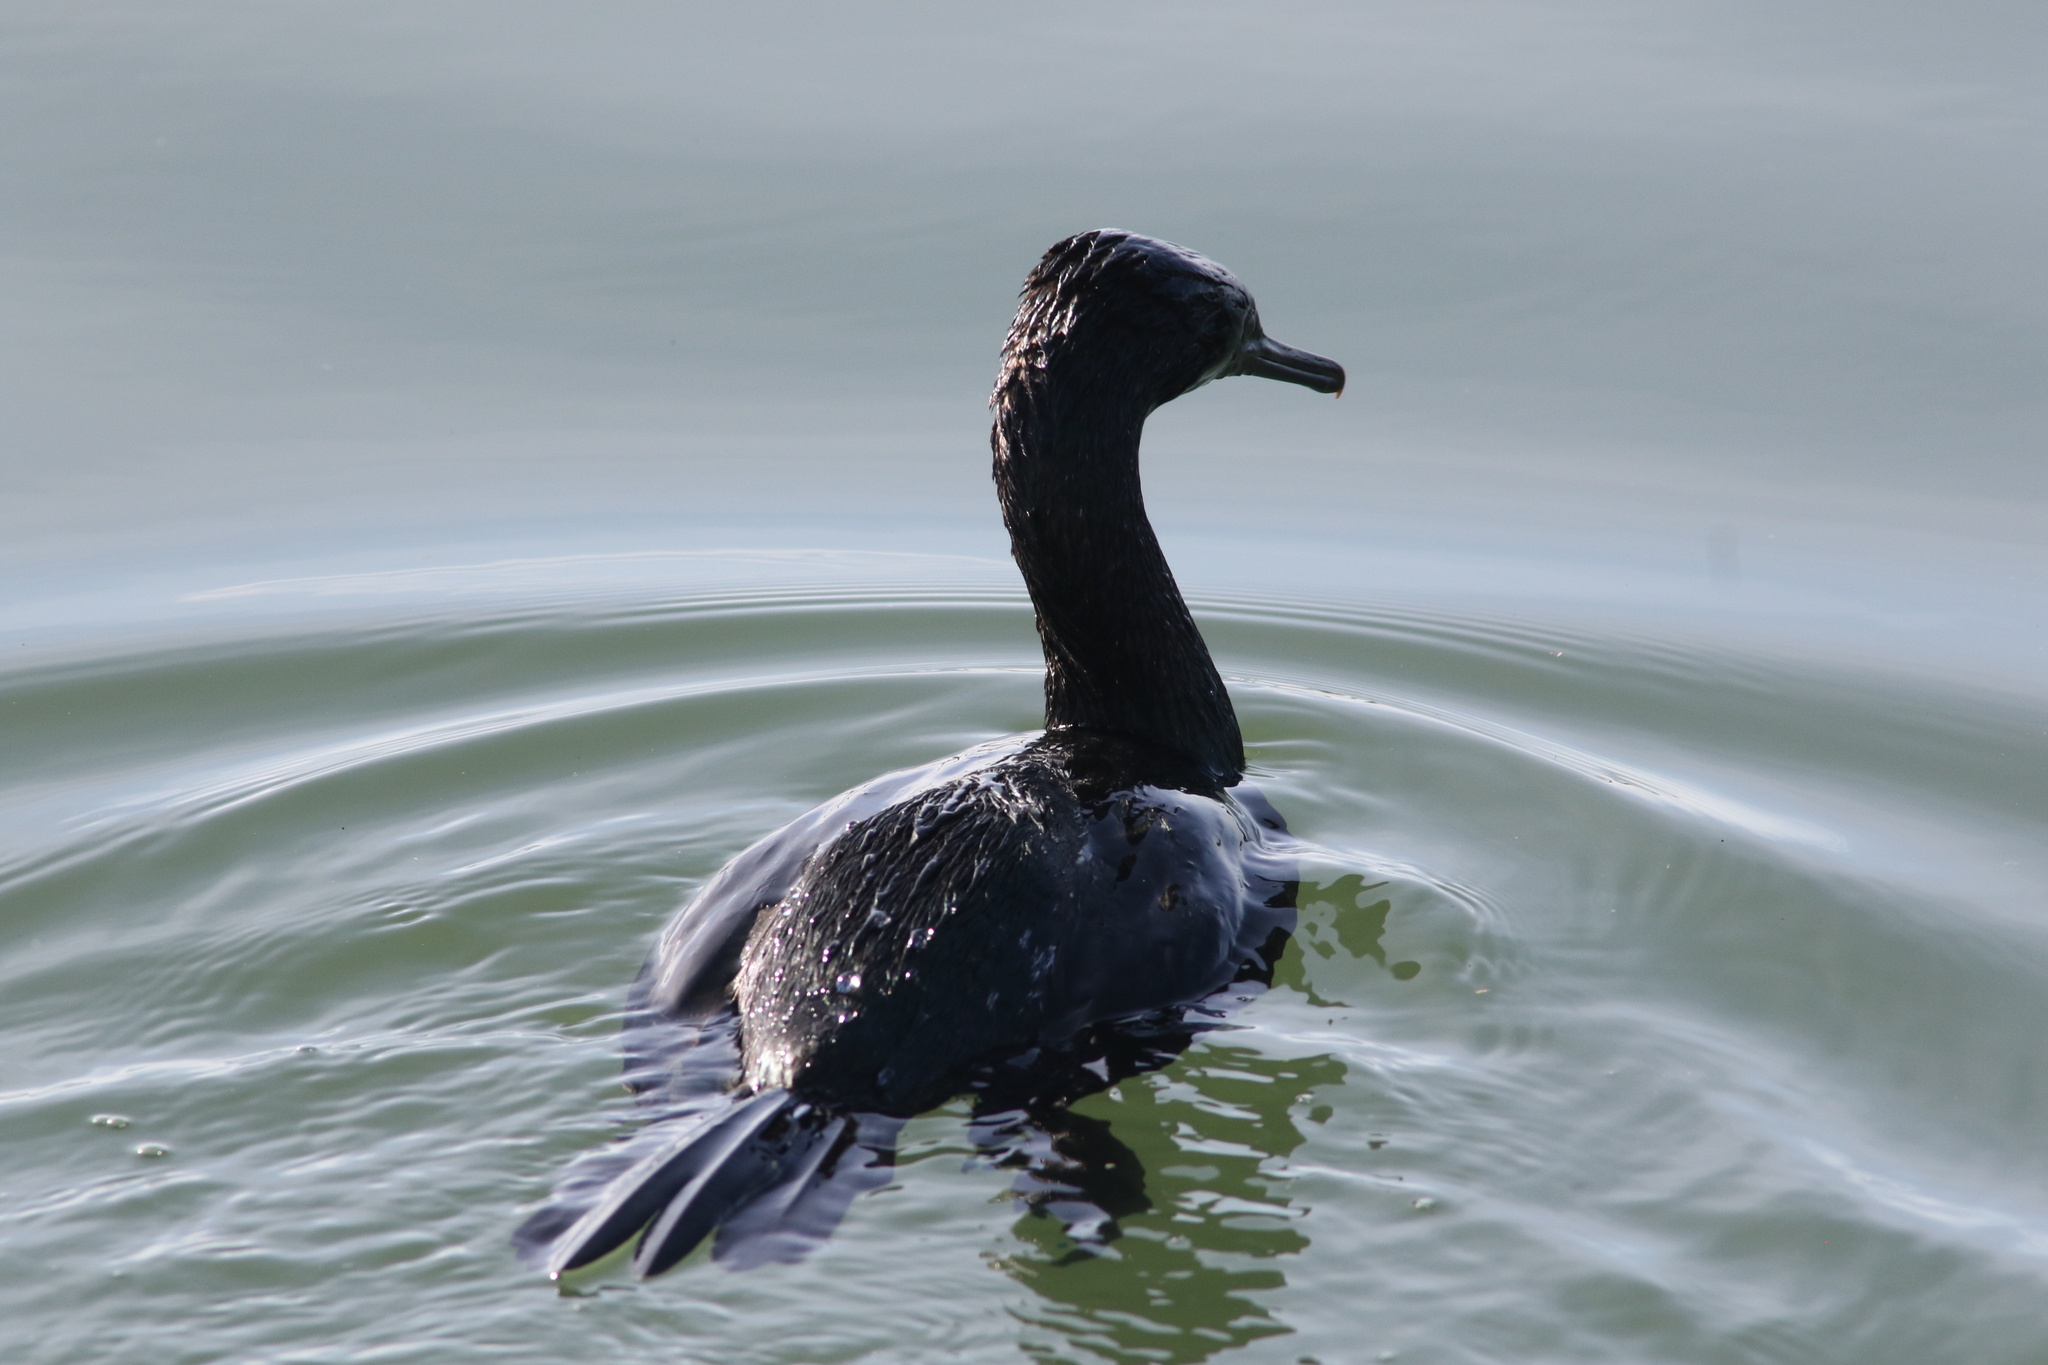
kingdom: Animalia
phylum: Chordata
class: Aves
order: Suliformes
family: Phalacrocoracidae
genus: Phalacrocorax
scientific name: Phalacrocorax pelagicus
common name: Pelagic cormorant
